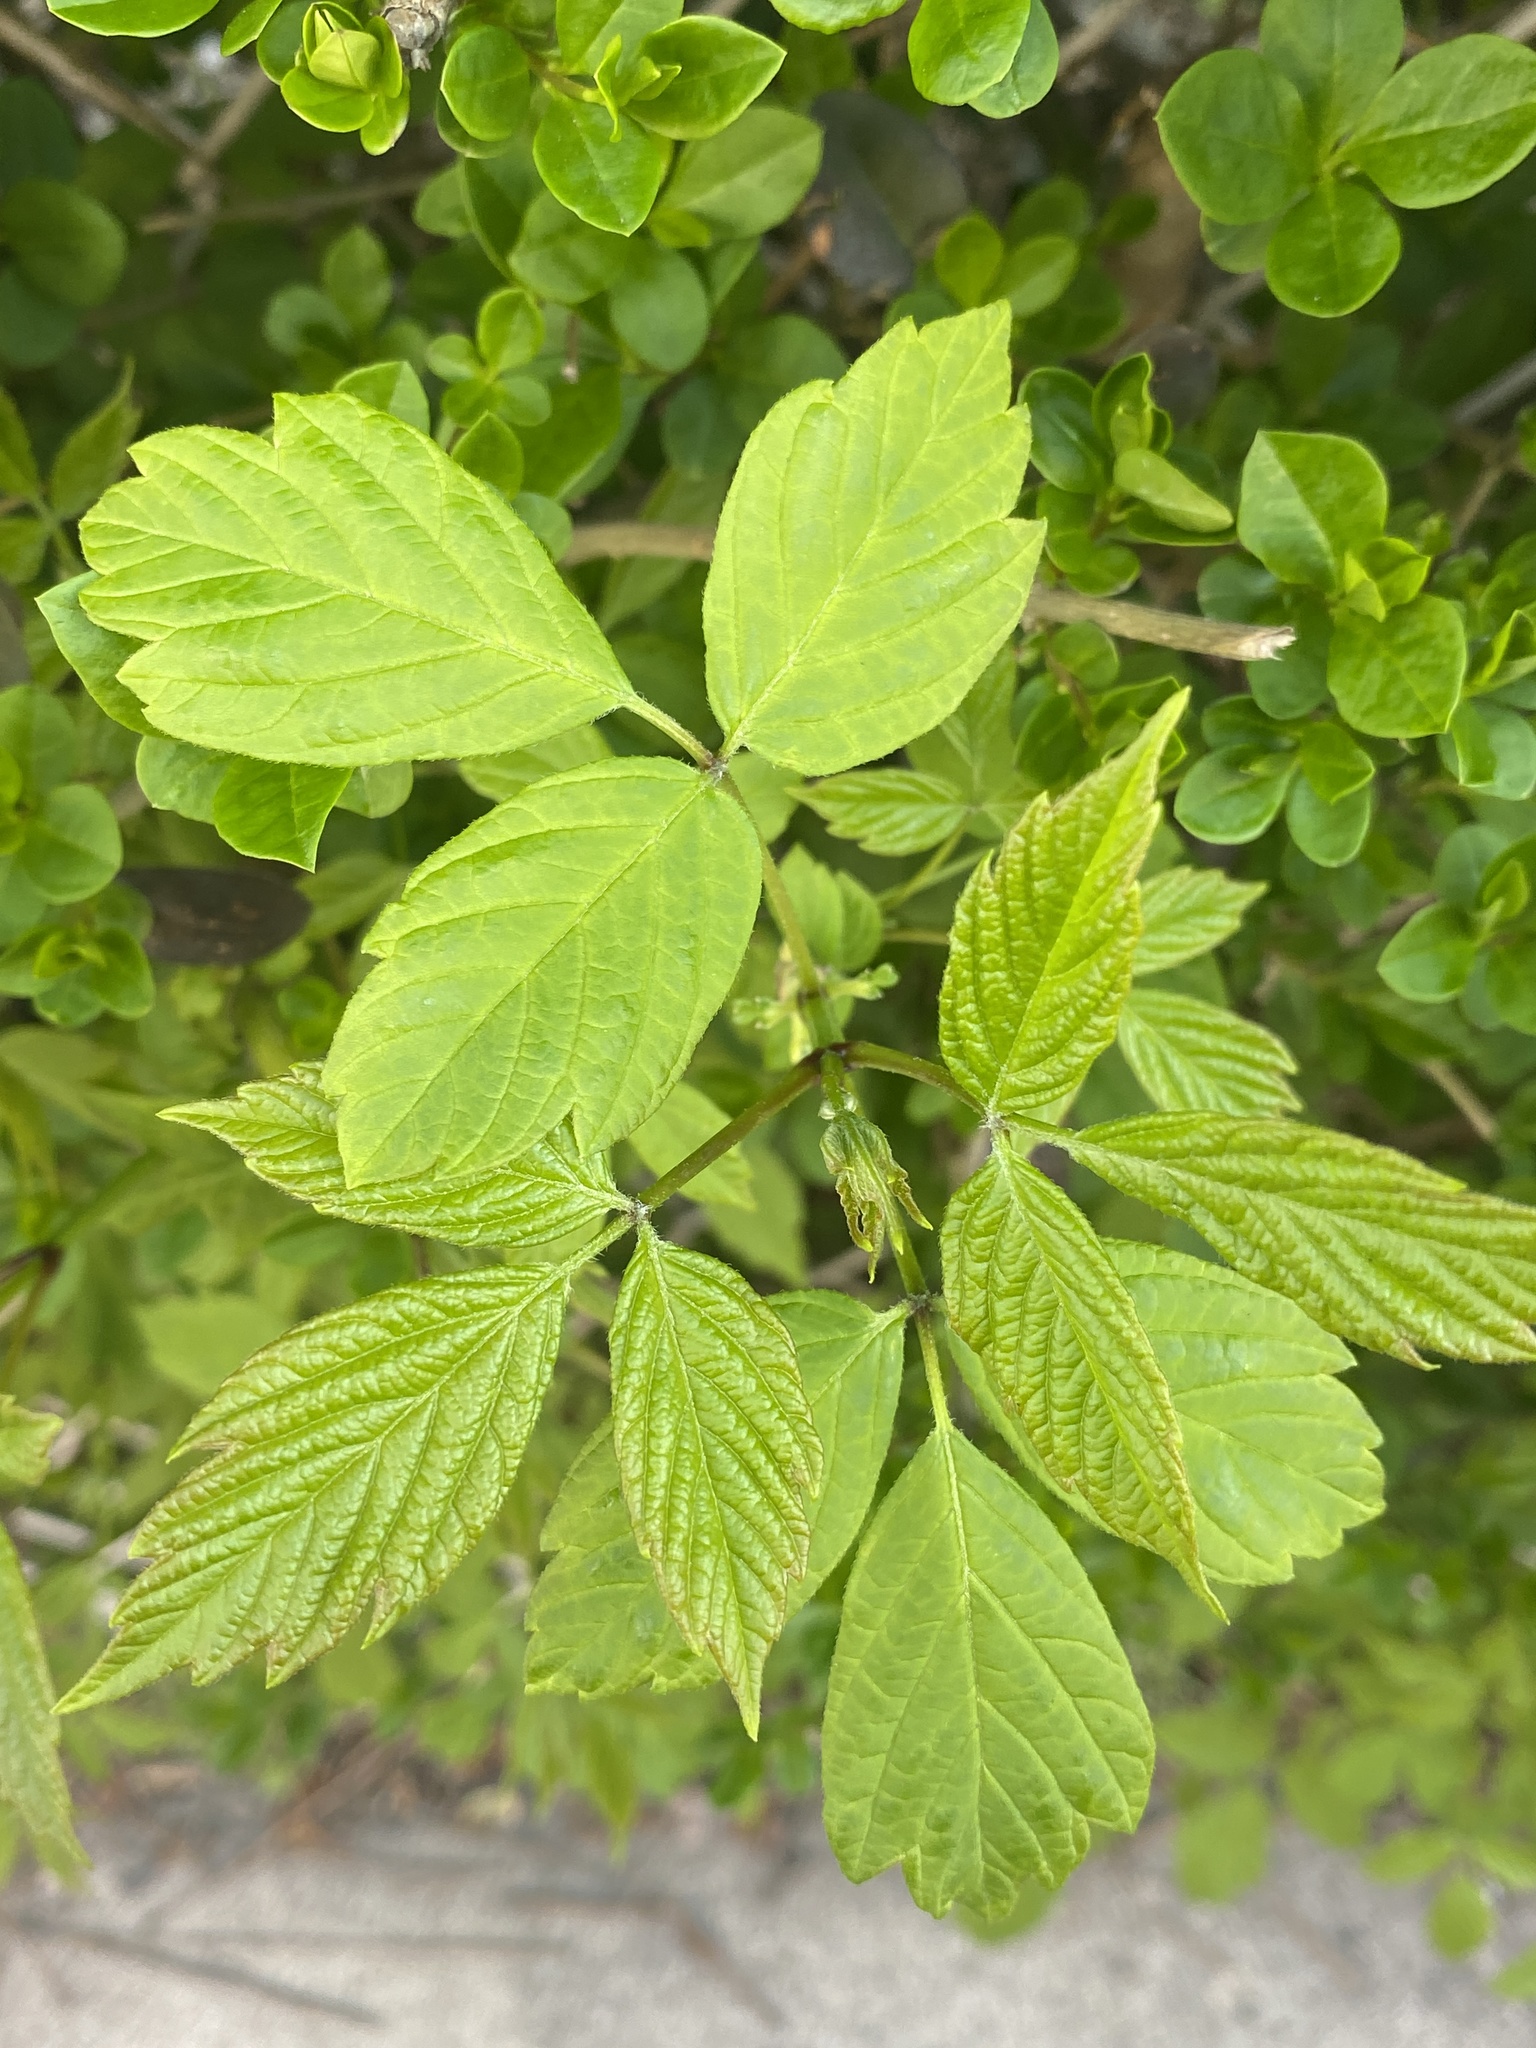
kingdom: Plantae
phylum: Tracheophyta
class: Magnoliopsida
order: Sapindales
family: Sapindaceae
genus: Acer
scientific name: Acer negundo
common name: Ashleaf maple
